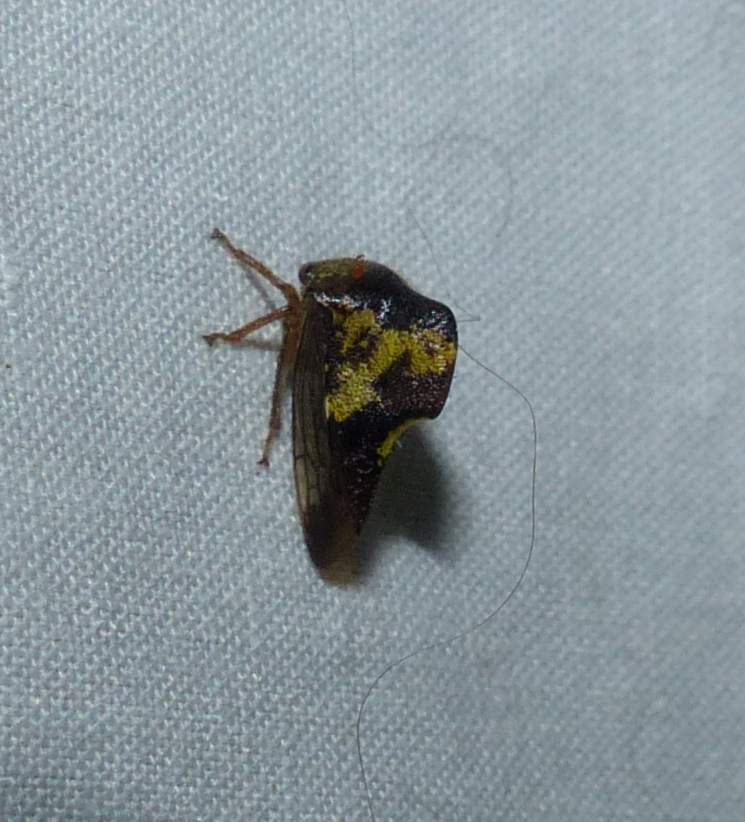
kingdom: Animalia
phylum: Arthropoda
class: Insecta
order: Hemiptera
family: Membracidae
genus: Telamona
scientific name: Telamona tristis
